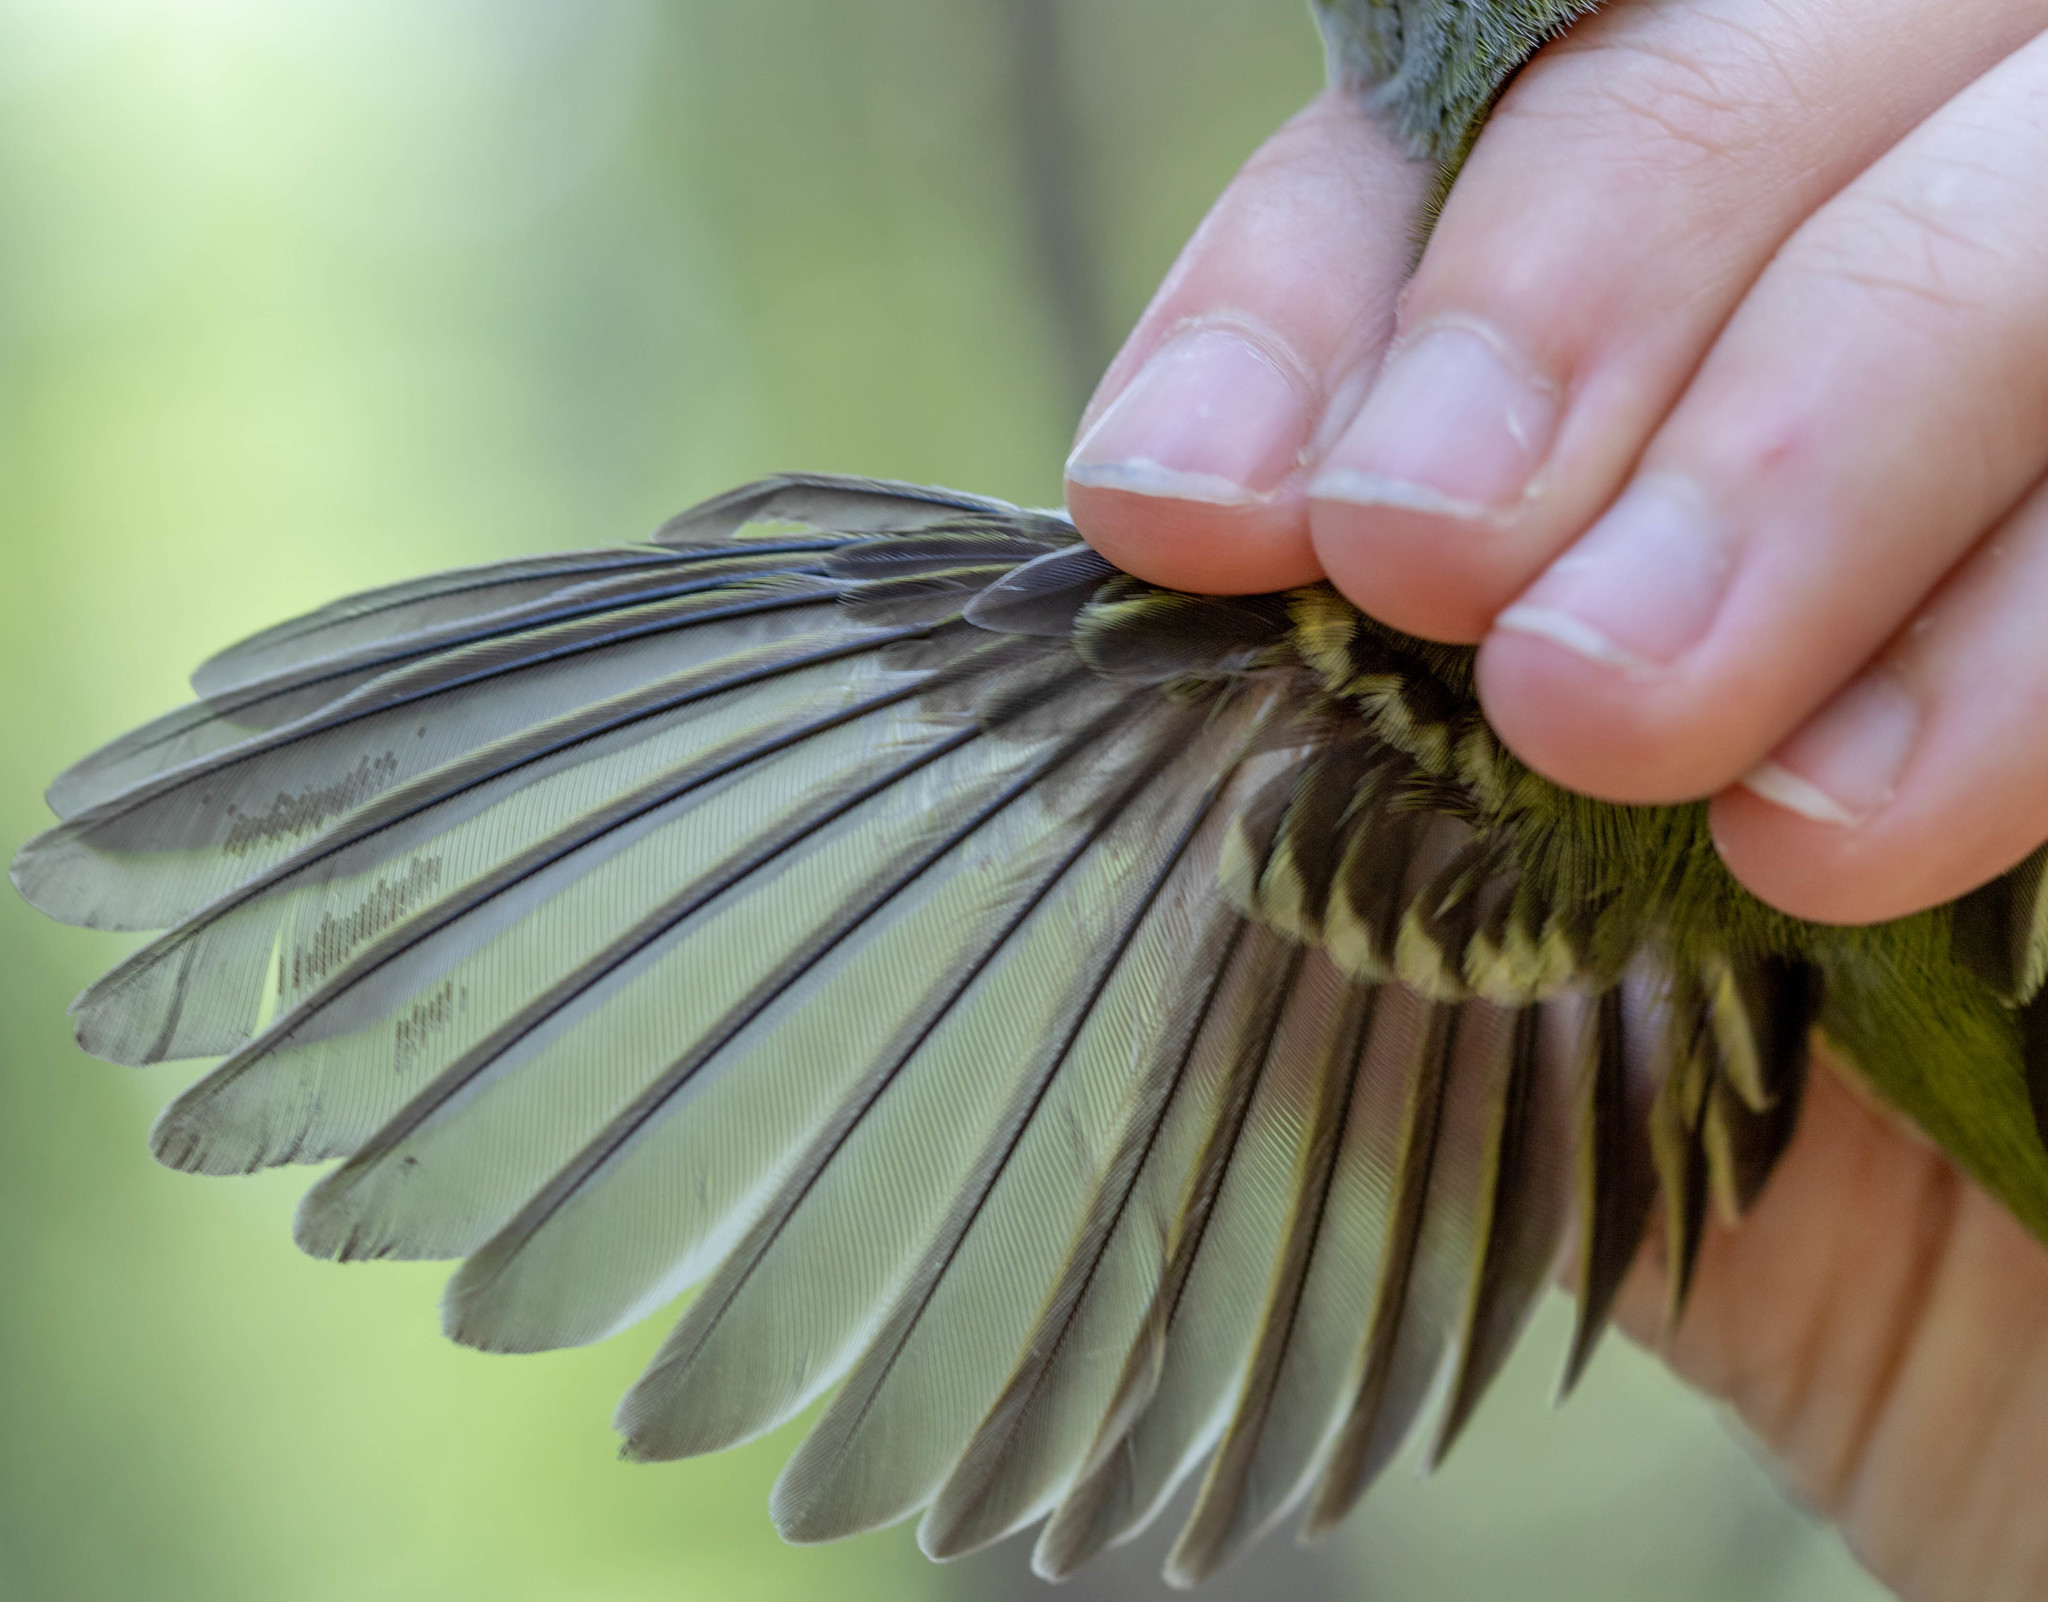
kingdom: Animalia
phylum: Chordata
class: Aves
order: Passeriformes
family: Vireonidae
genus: Vireo
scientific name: Vireo griseus
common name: White-eyed vireo
